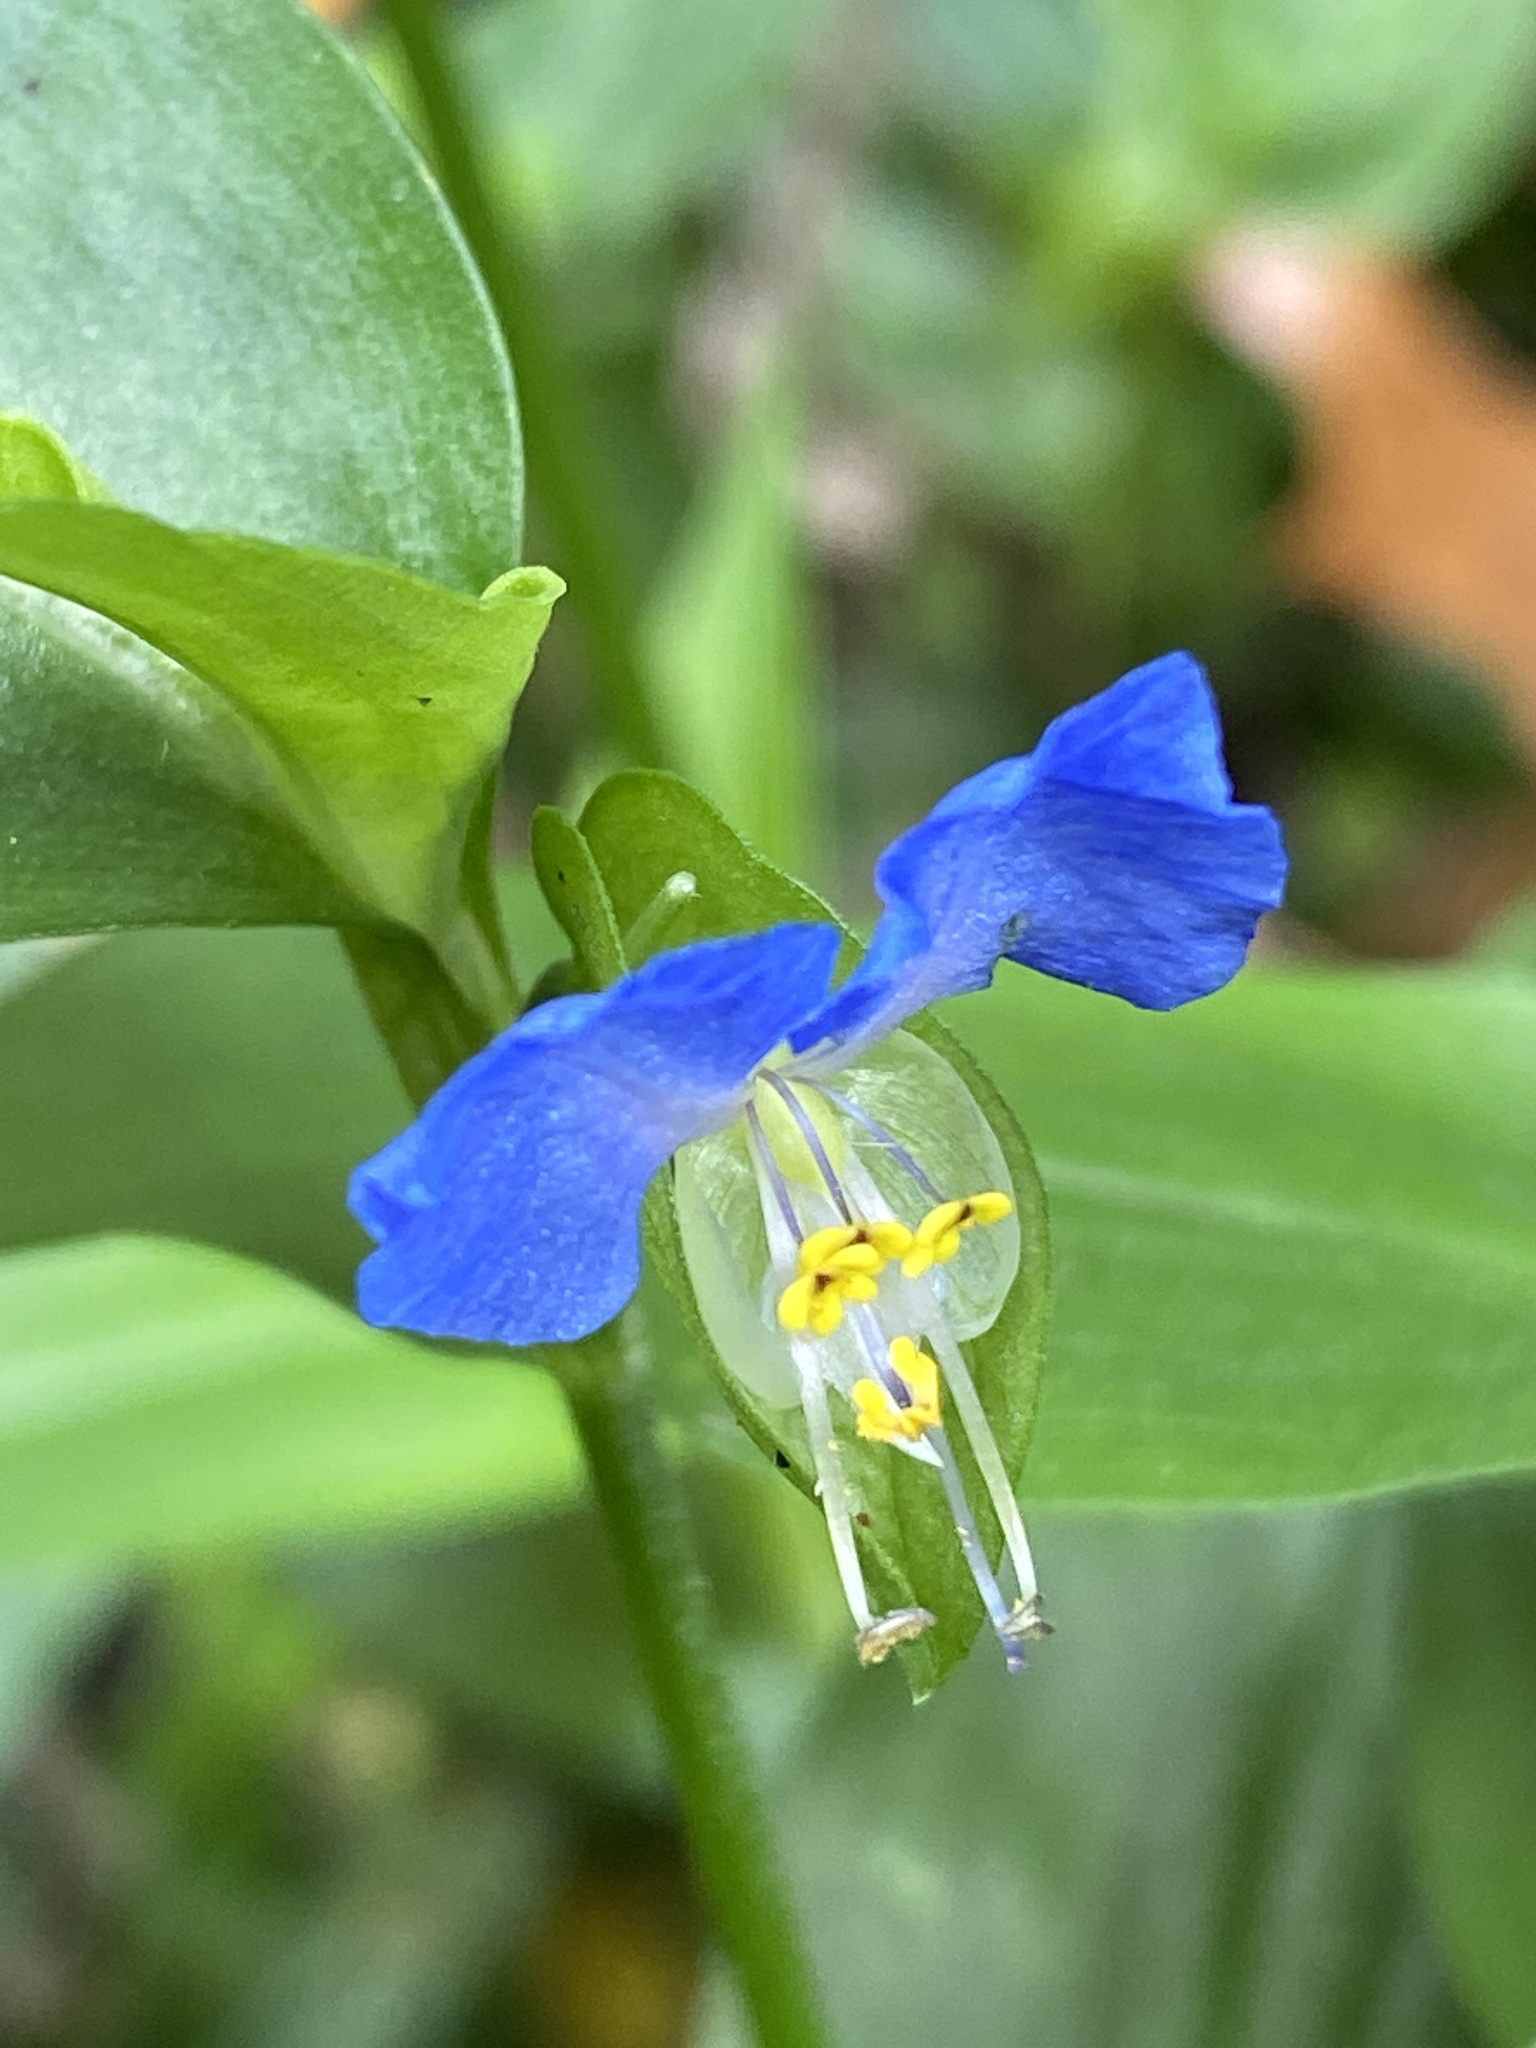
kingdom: Plantae
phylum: Tracheophyta
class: Liliopsida
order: Commelinales
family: Commelinaceae
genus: Commelina
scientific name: Commelina communis
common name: Asiatic dayflower
